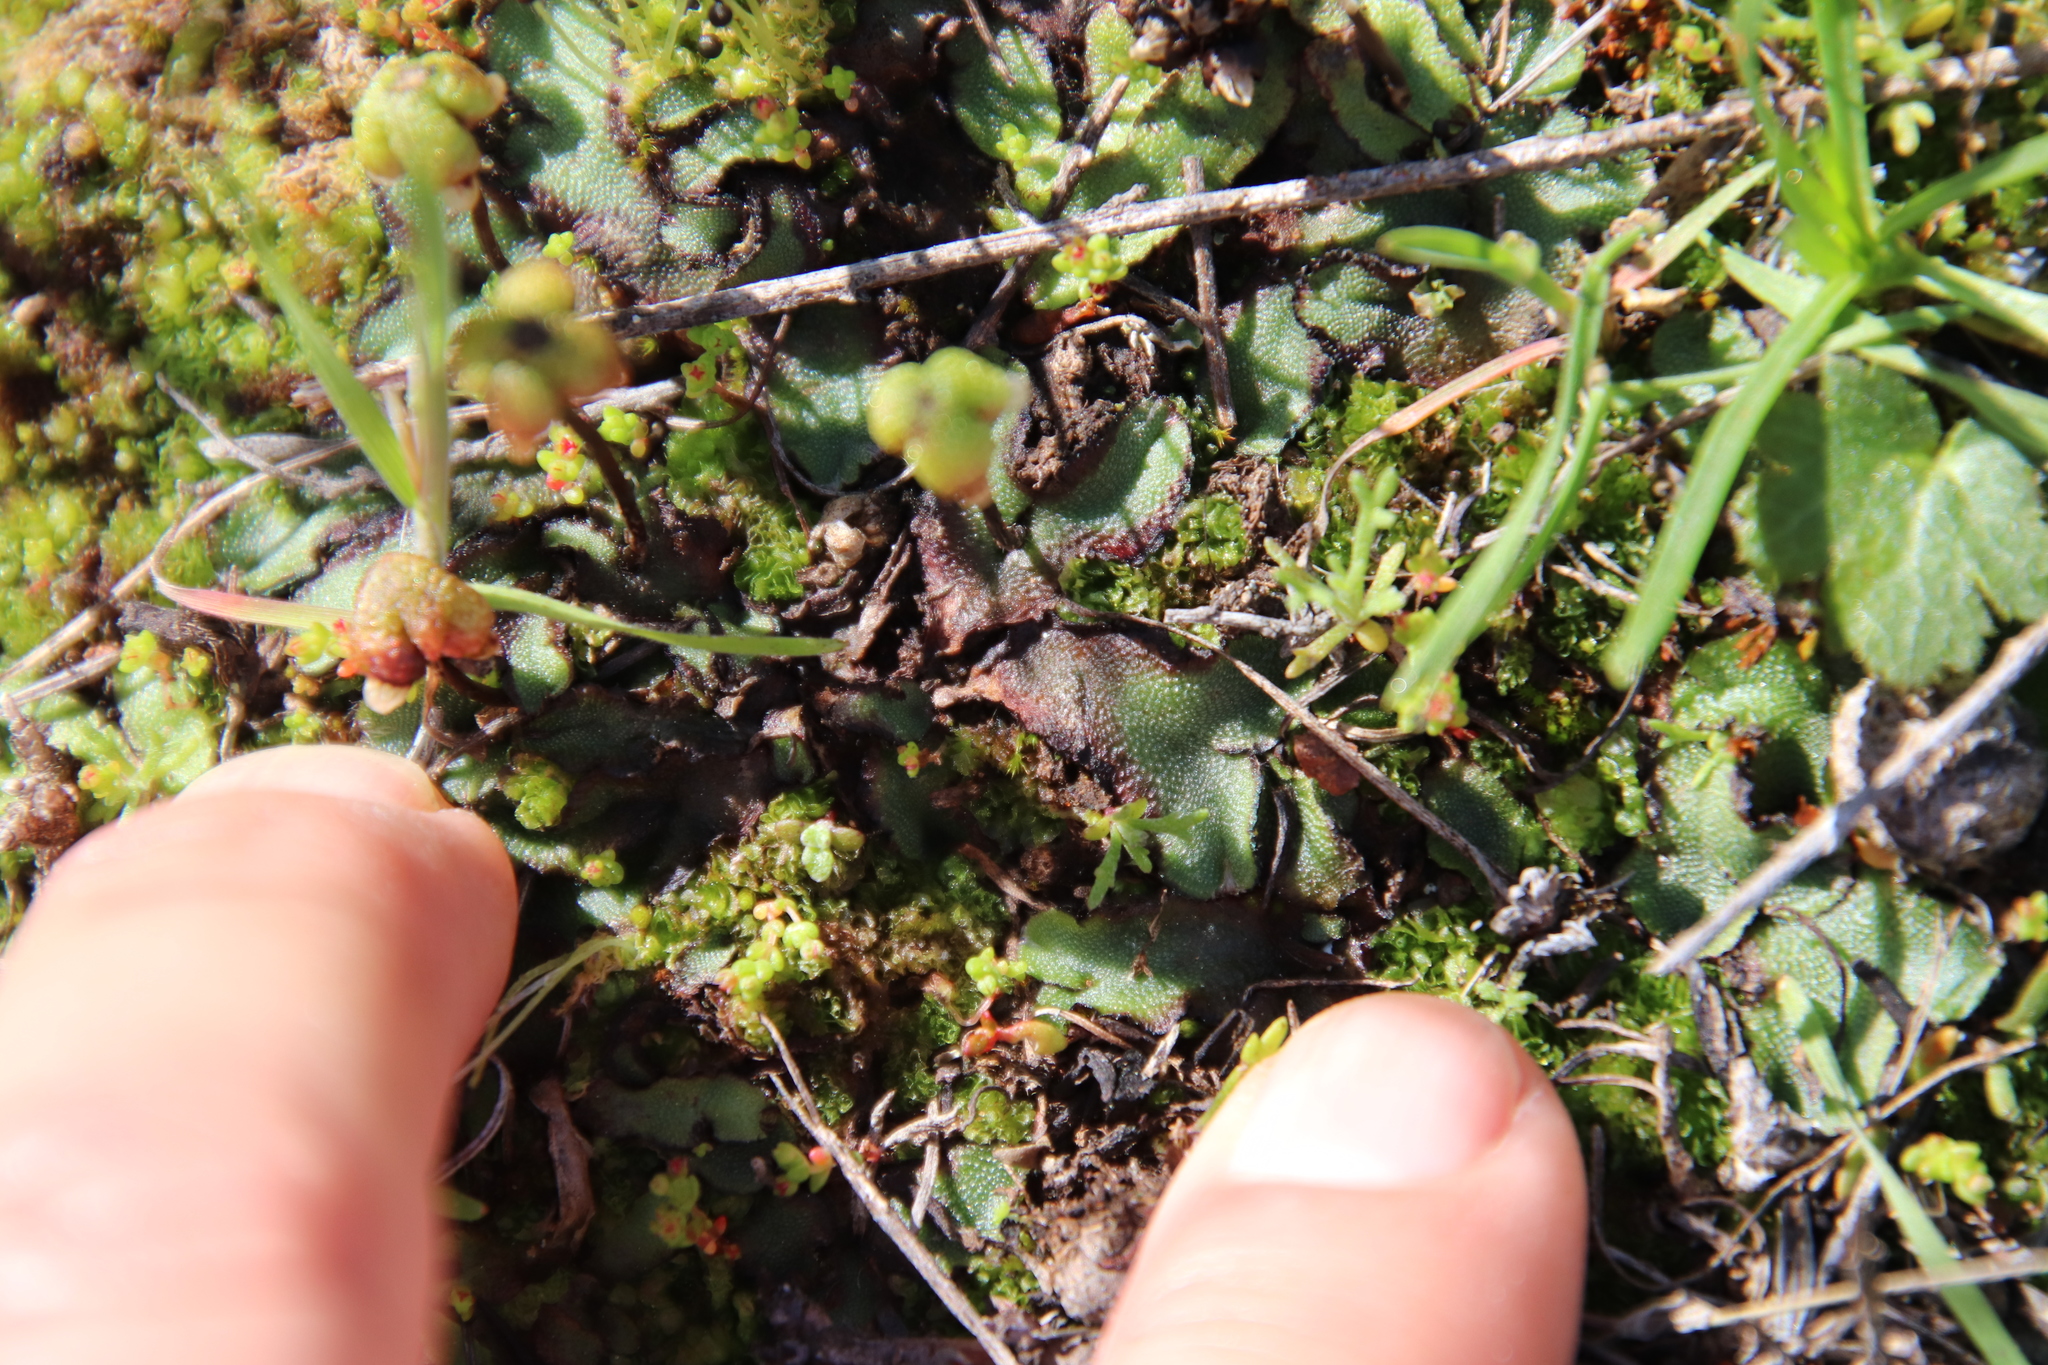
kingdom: Plantae
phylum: Marchantiophyta
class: Marchantiopsida
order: Marchantiales
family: Aytoniaceae
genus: Asterella
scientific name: Asterella californica
